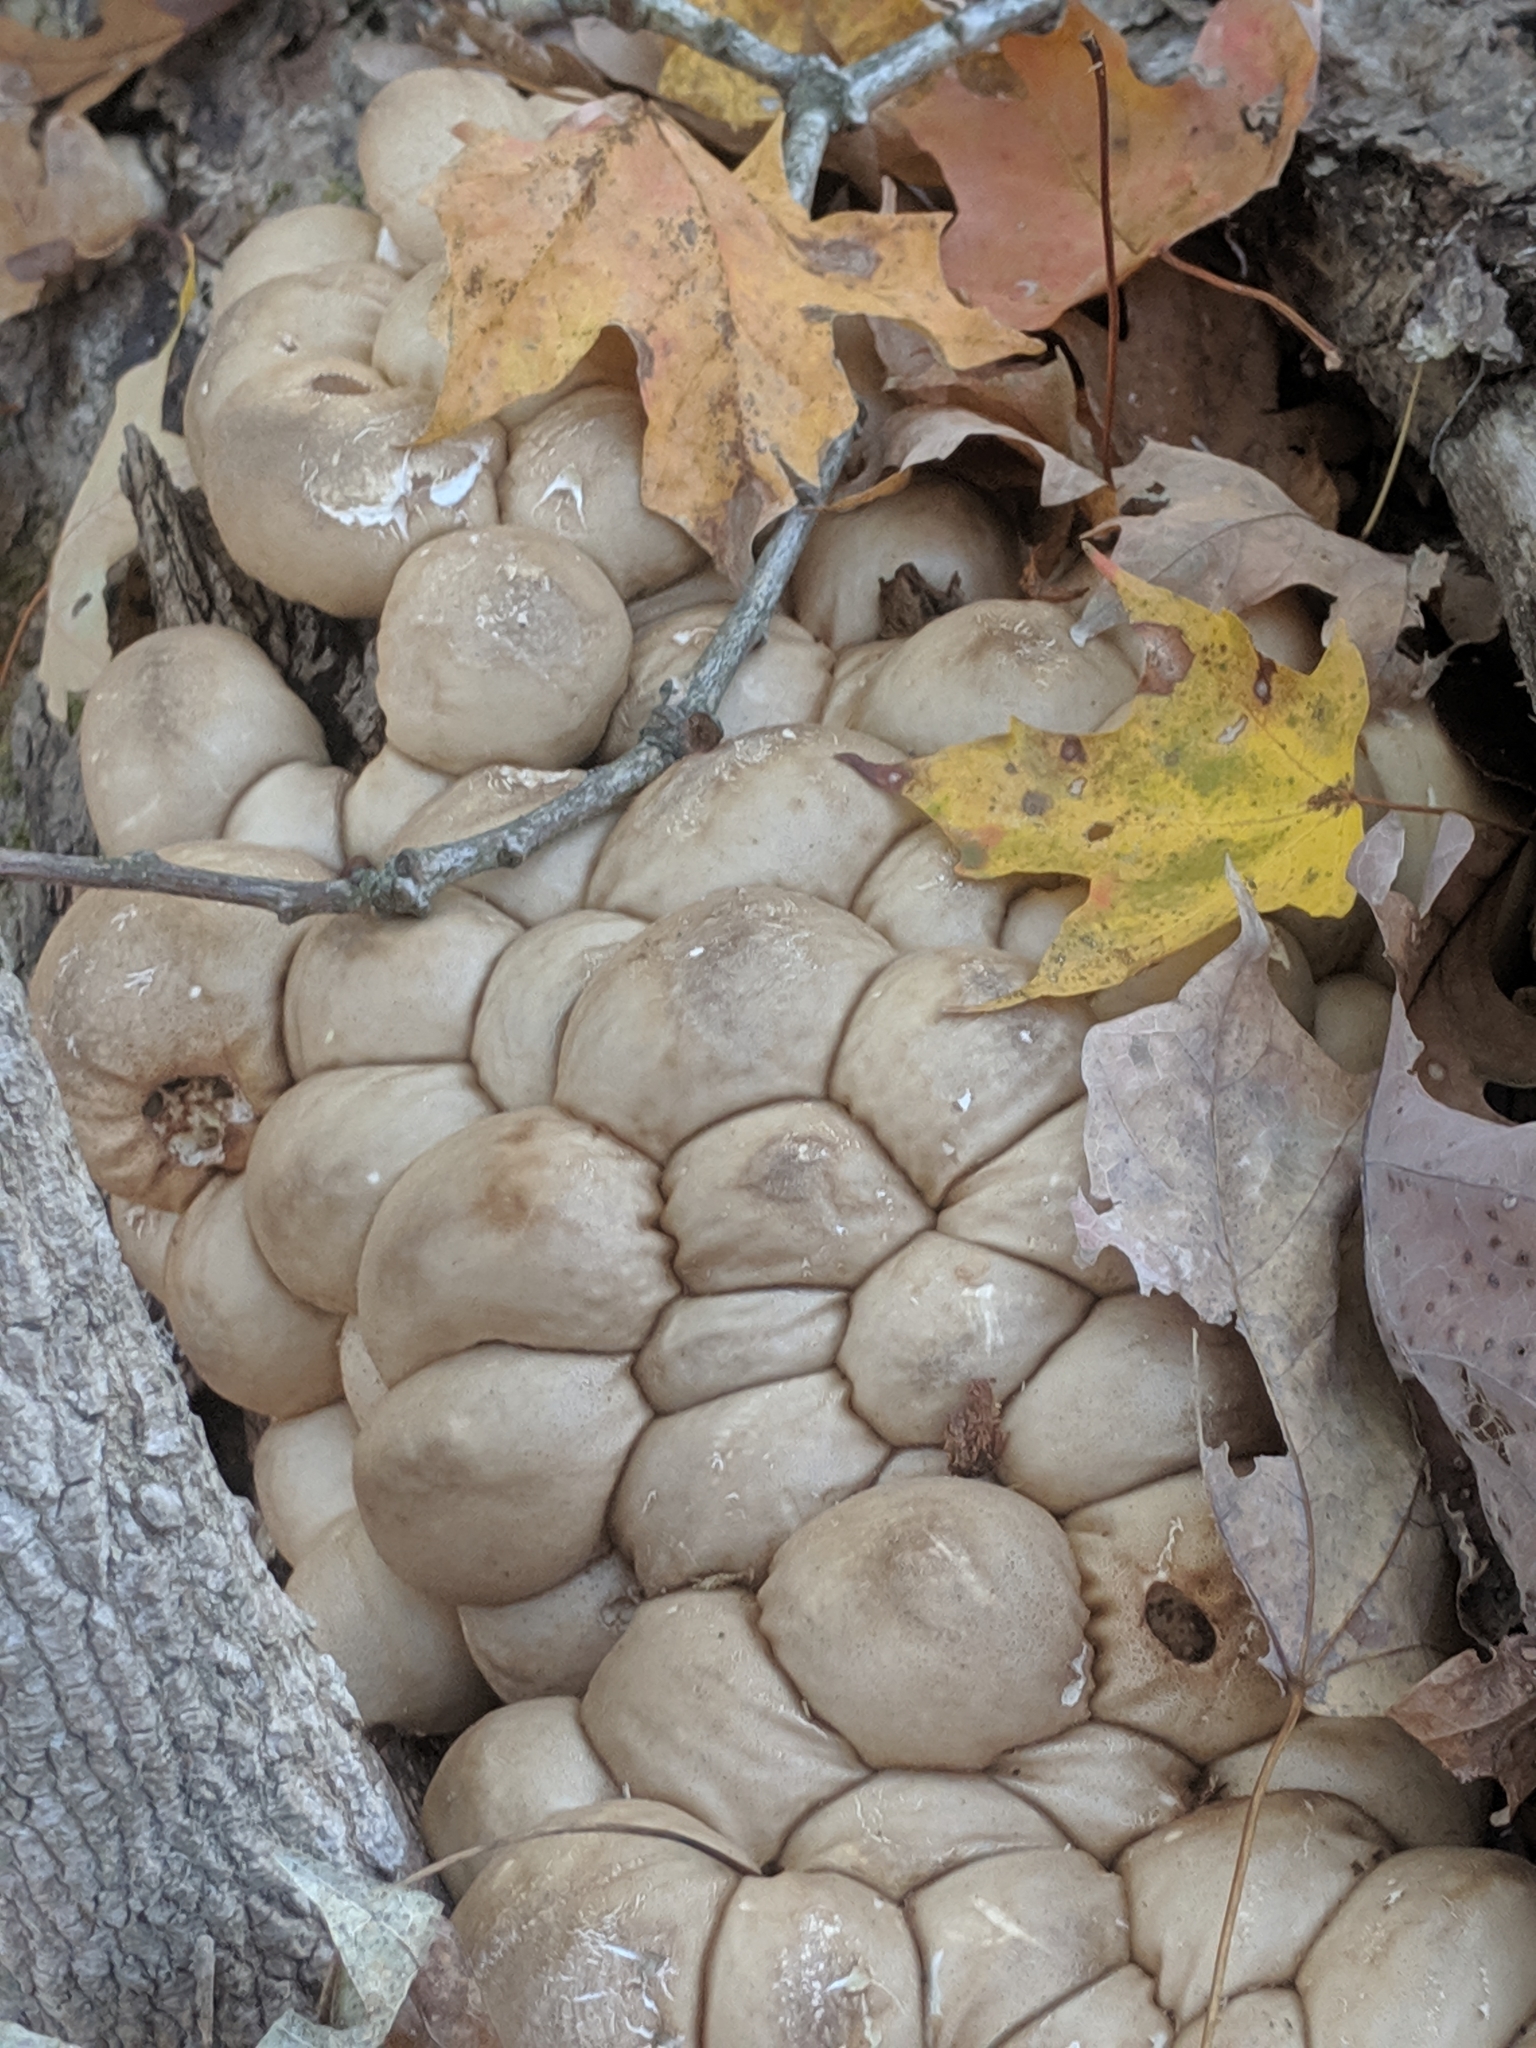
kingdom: Fungi
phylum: Basidiomycota
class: Agaricomycetes
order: Agaricales
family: Lycoperdaceae
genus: Apioperdon
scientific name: Apioperdon pyriforme
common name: Pear-shaped puffball
